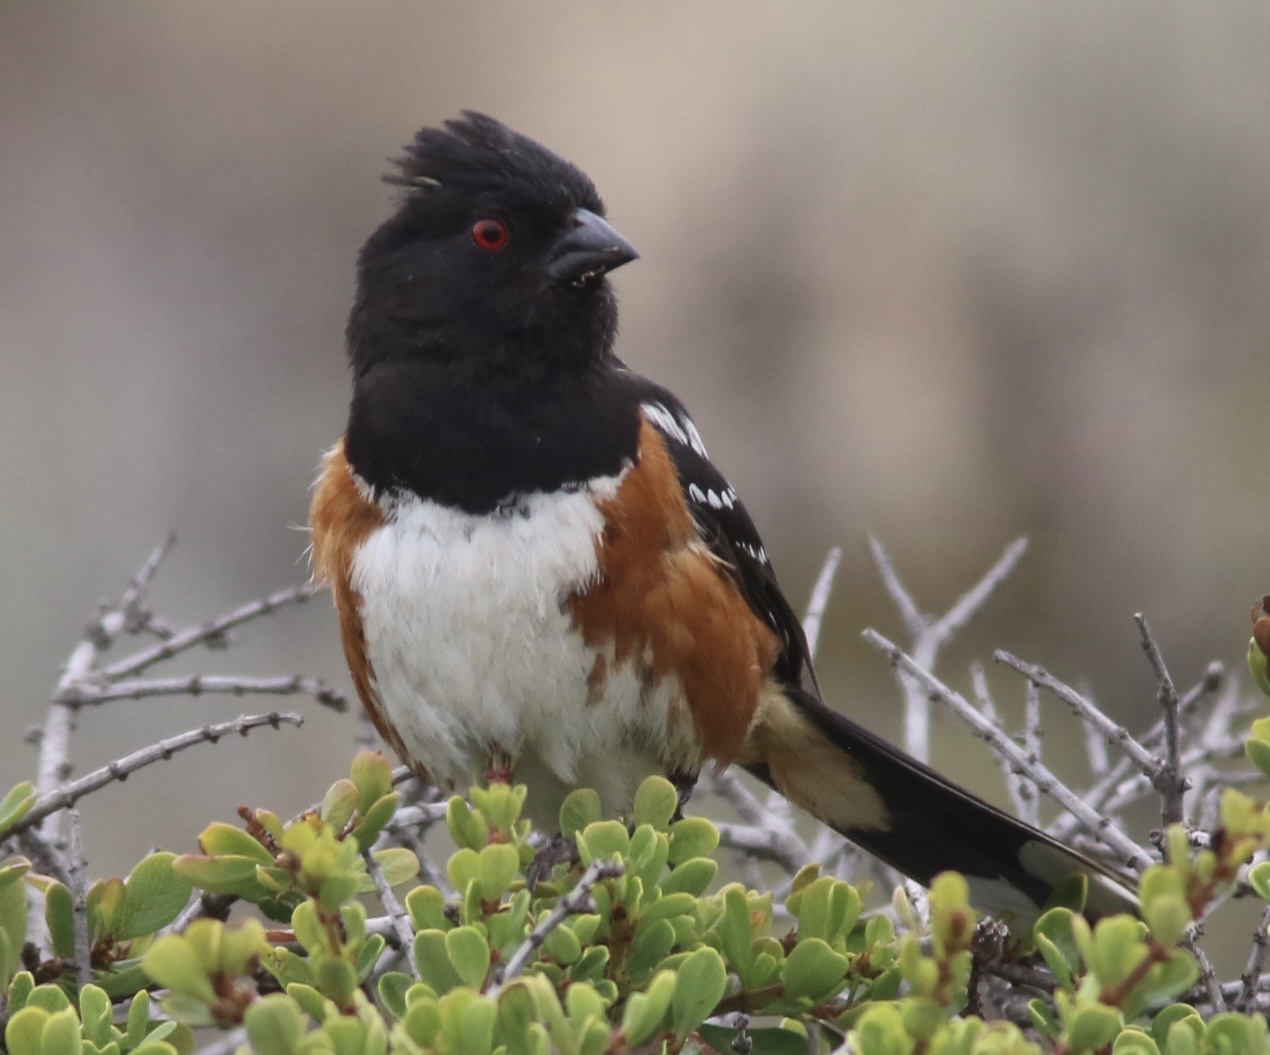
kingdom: Animalia
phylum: Chordata
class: Aves
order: Passeriformes
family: Passerellidae
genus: Pipilo
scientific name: Pipilo maculatus
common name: Spotted towhee
